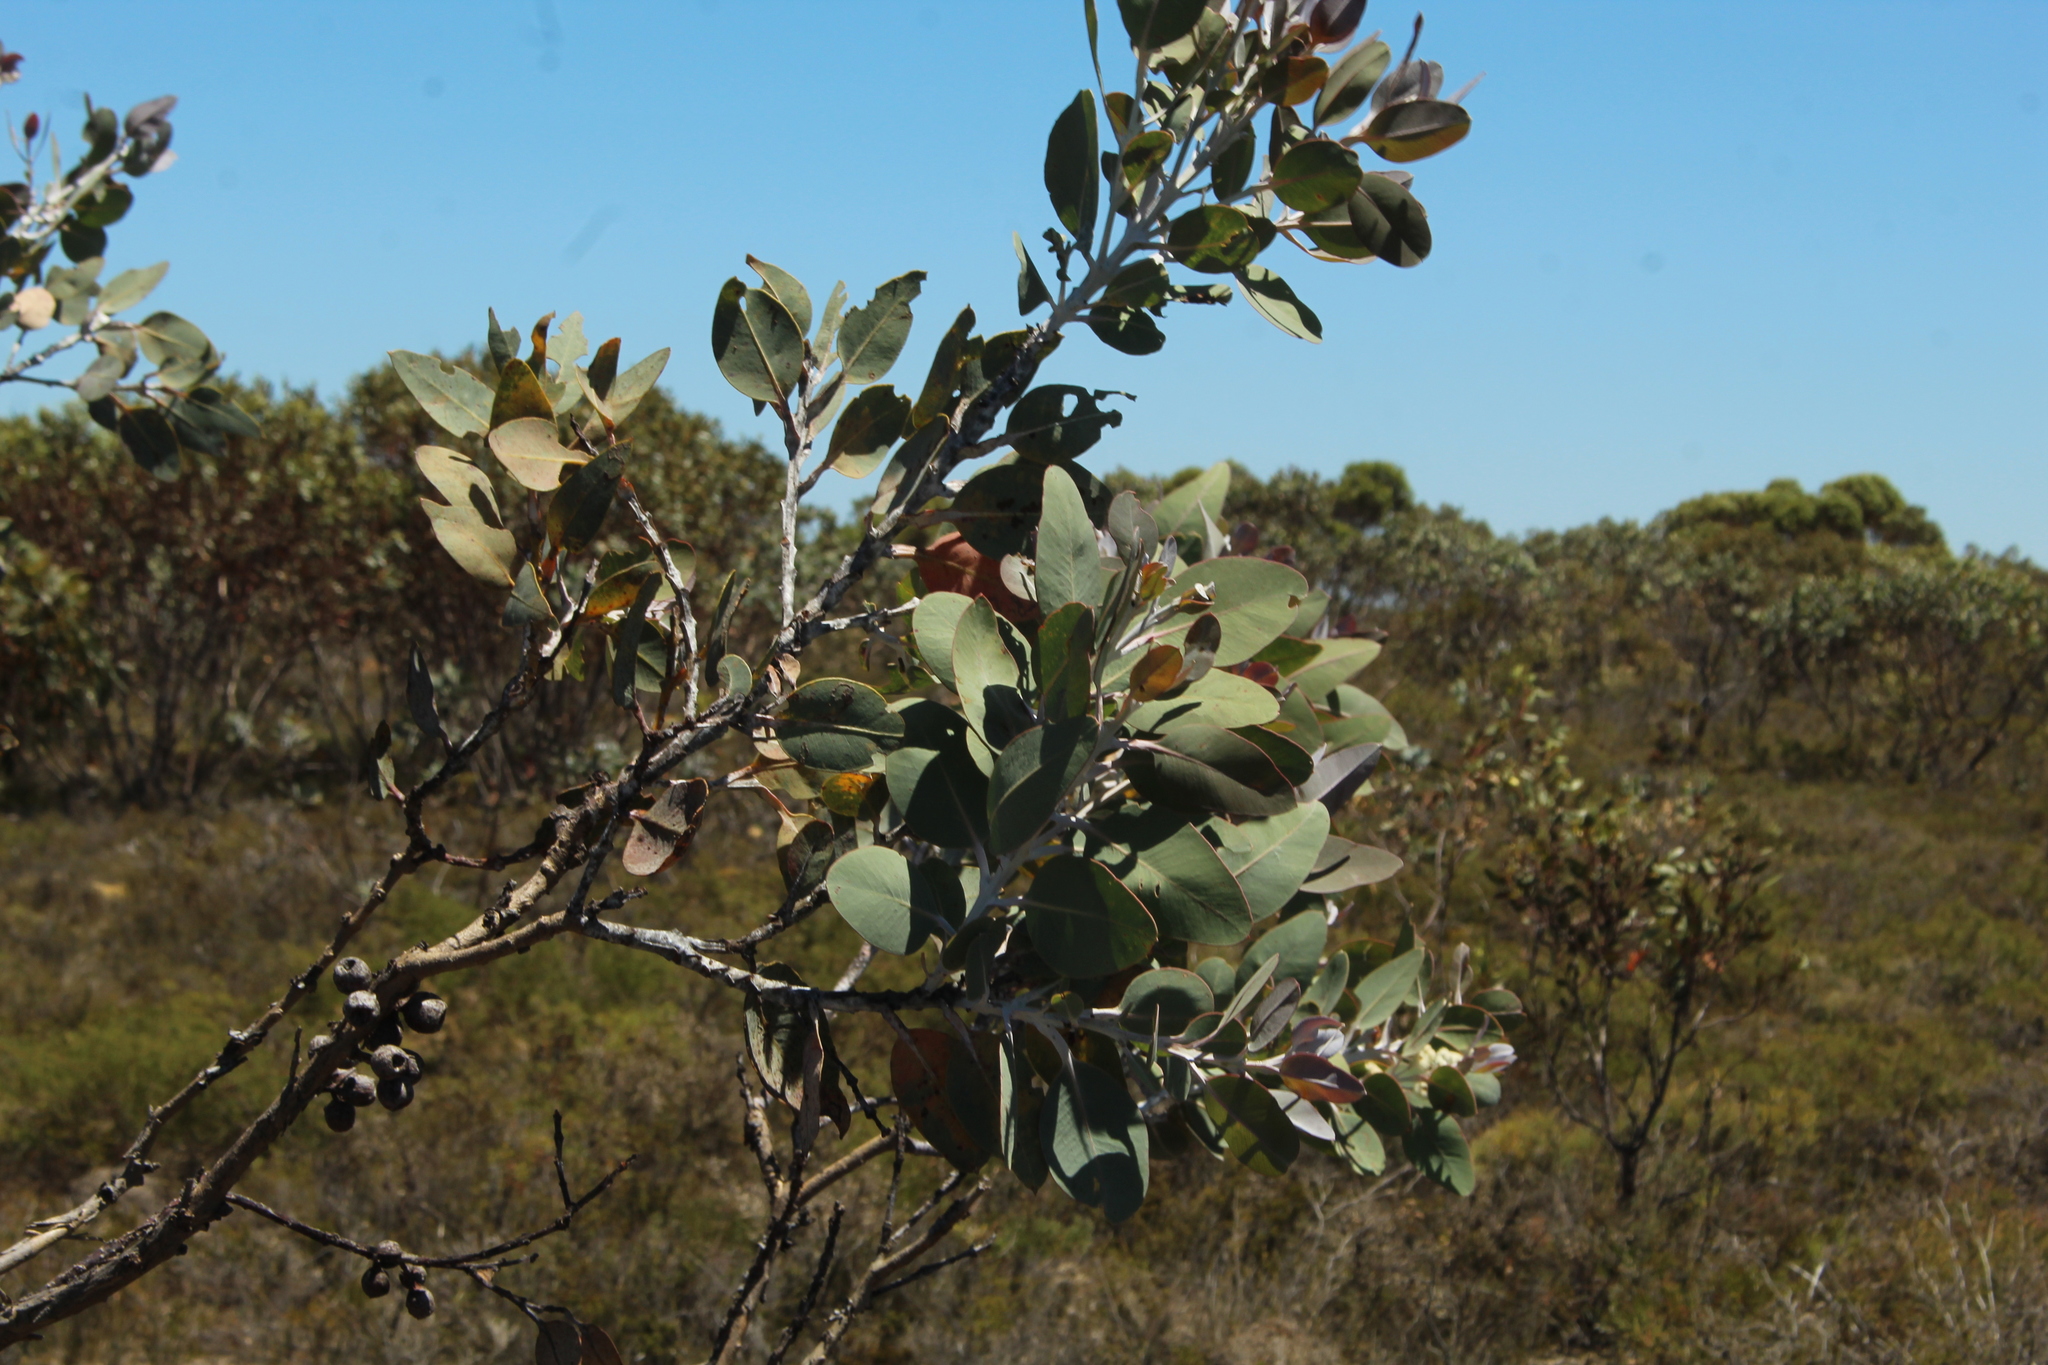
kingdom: Plantae
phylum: Tracheophyta
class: Magnoliopsida
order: Myrtales
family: Myrtaceae
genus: Eucalyptus
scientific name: Eucalyptus tetragona
